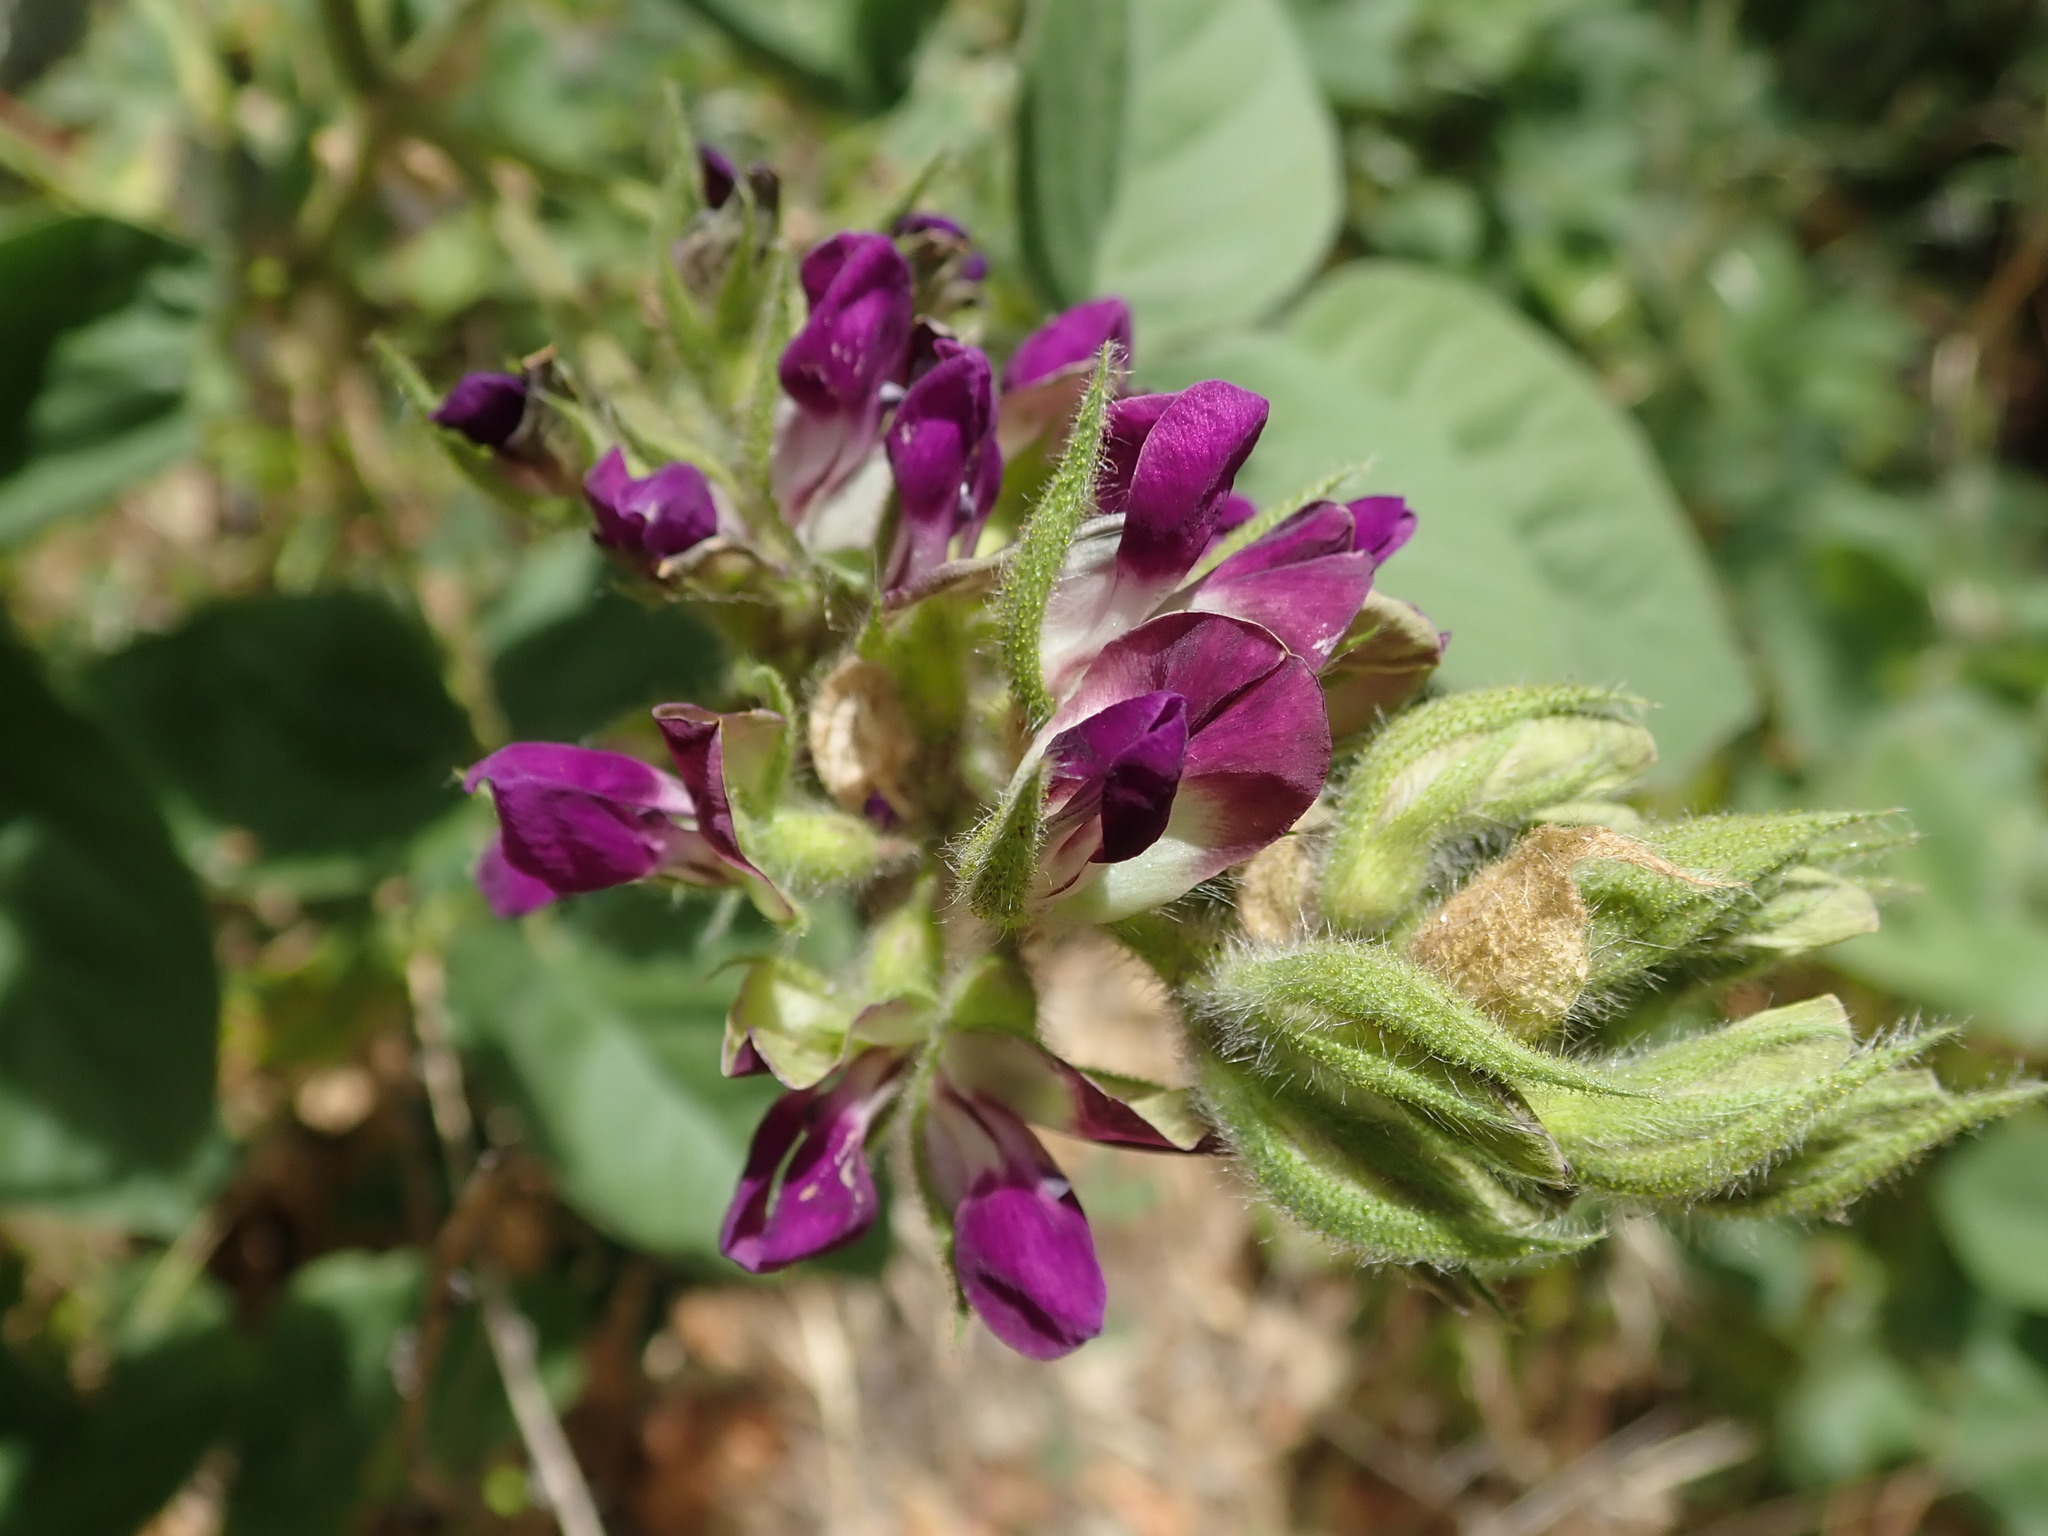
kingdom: Plantae
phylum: Tracheophyta
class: Magnoliopsida
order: Fabales
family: Fabaceae
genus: Hoita
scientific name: Hoita strobilina
